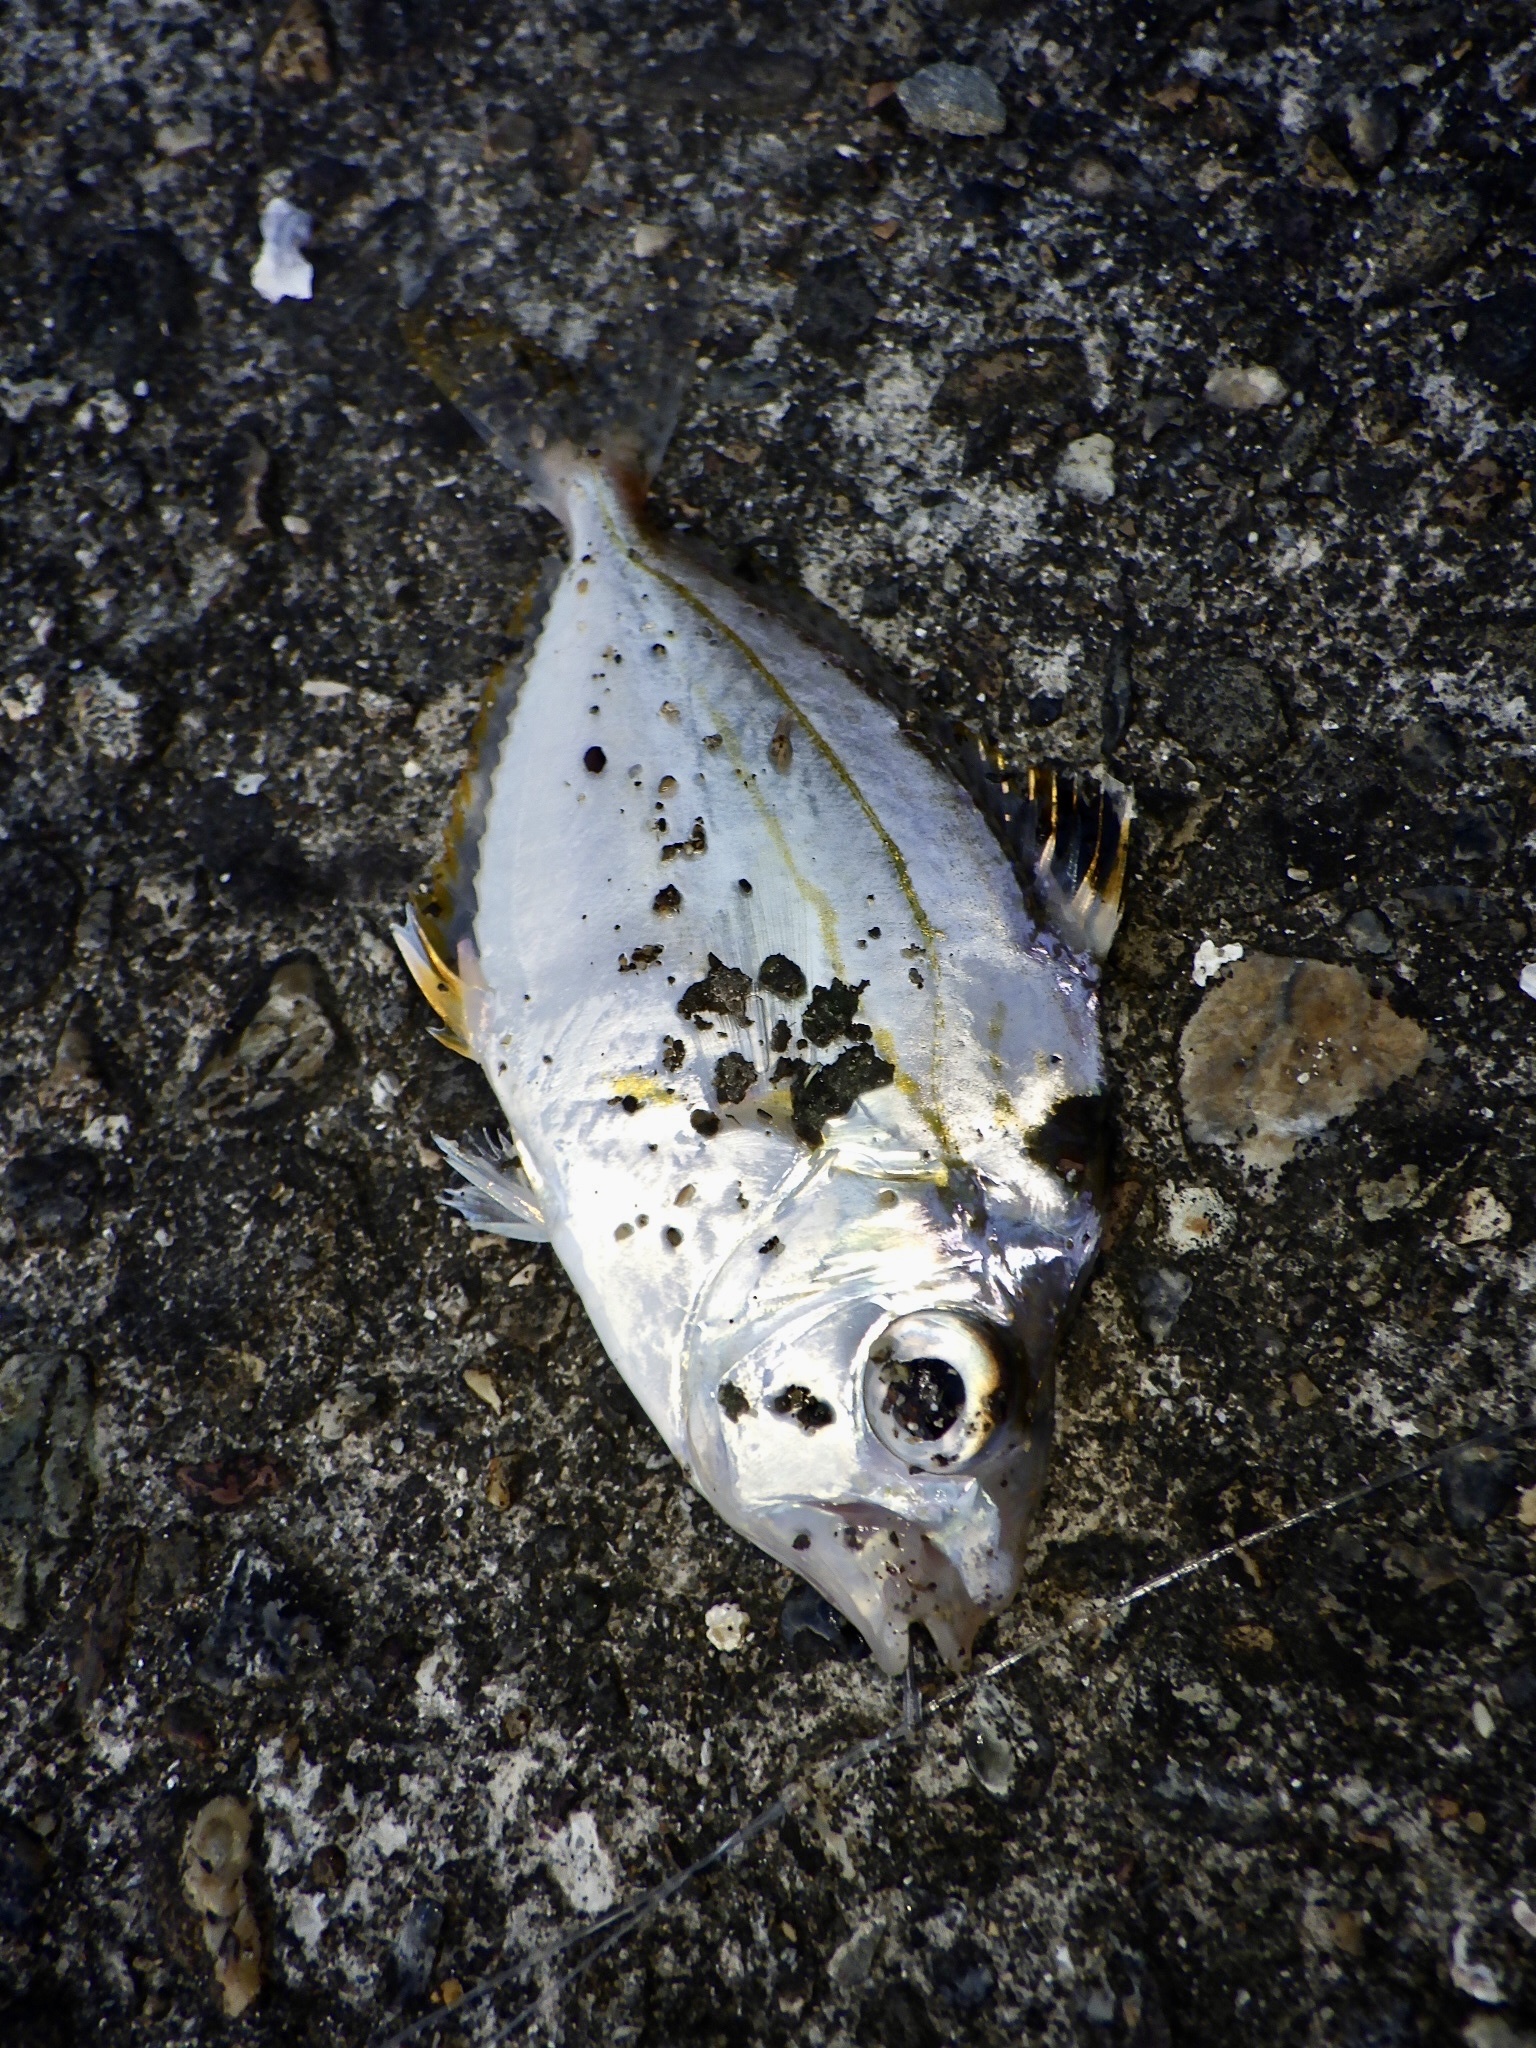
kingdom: Animalia
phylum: Chordata
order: Perciformes
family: Leiognathidae
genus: Nuchequula
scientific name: Nuchequula nuchalis
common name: Spotnape ponyfish
